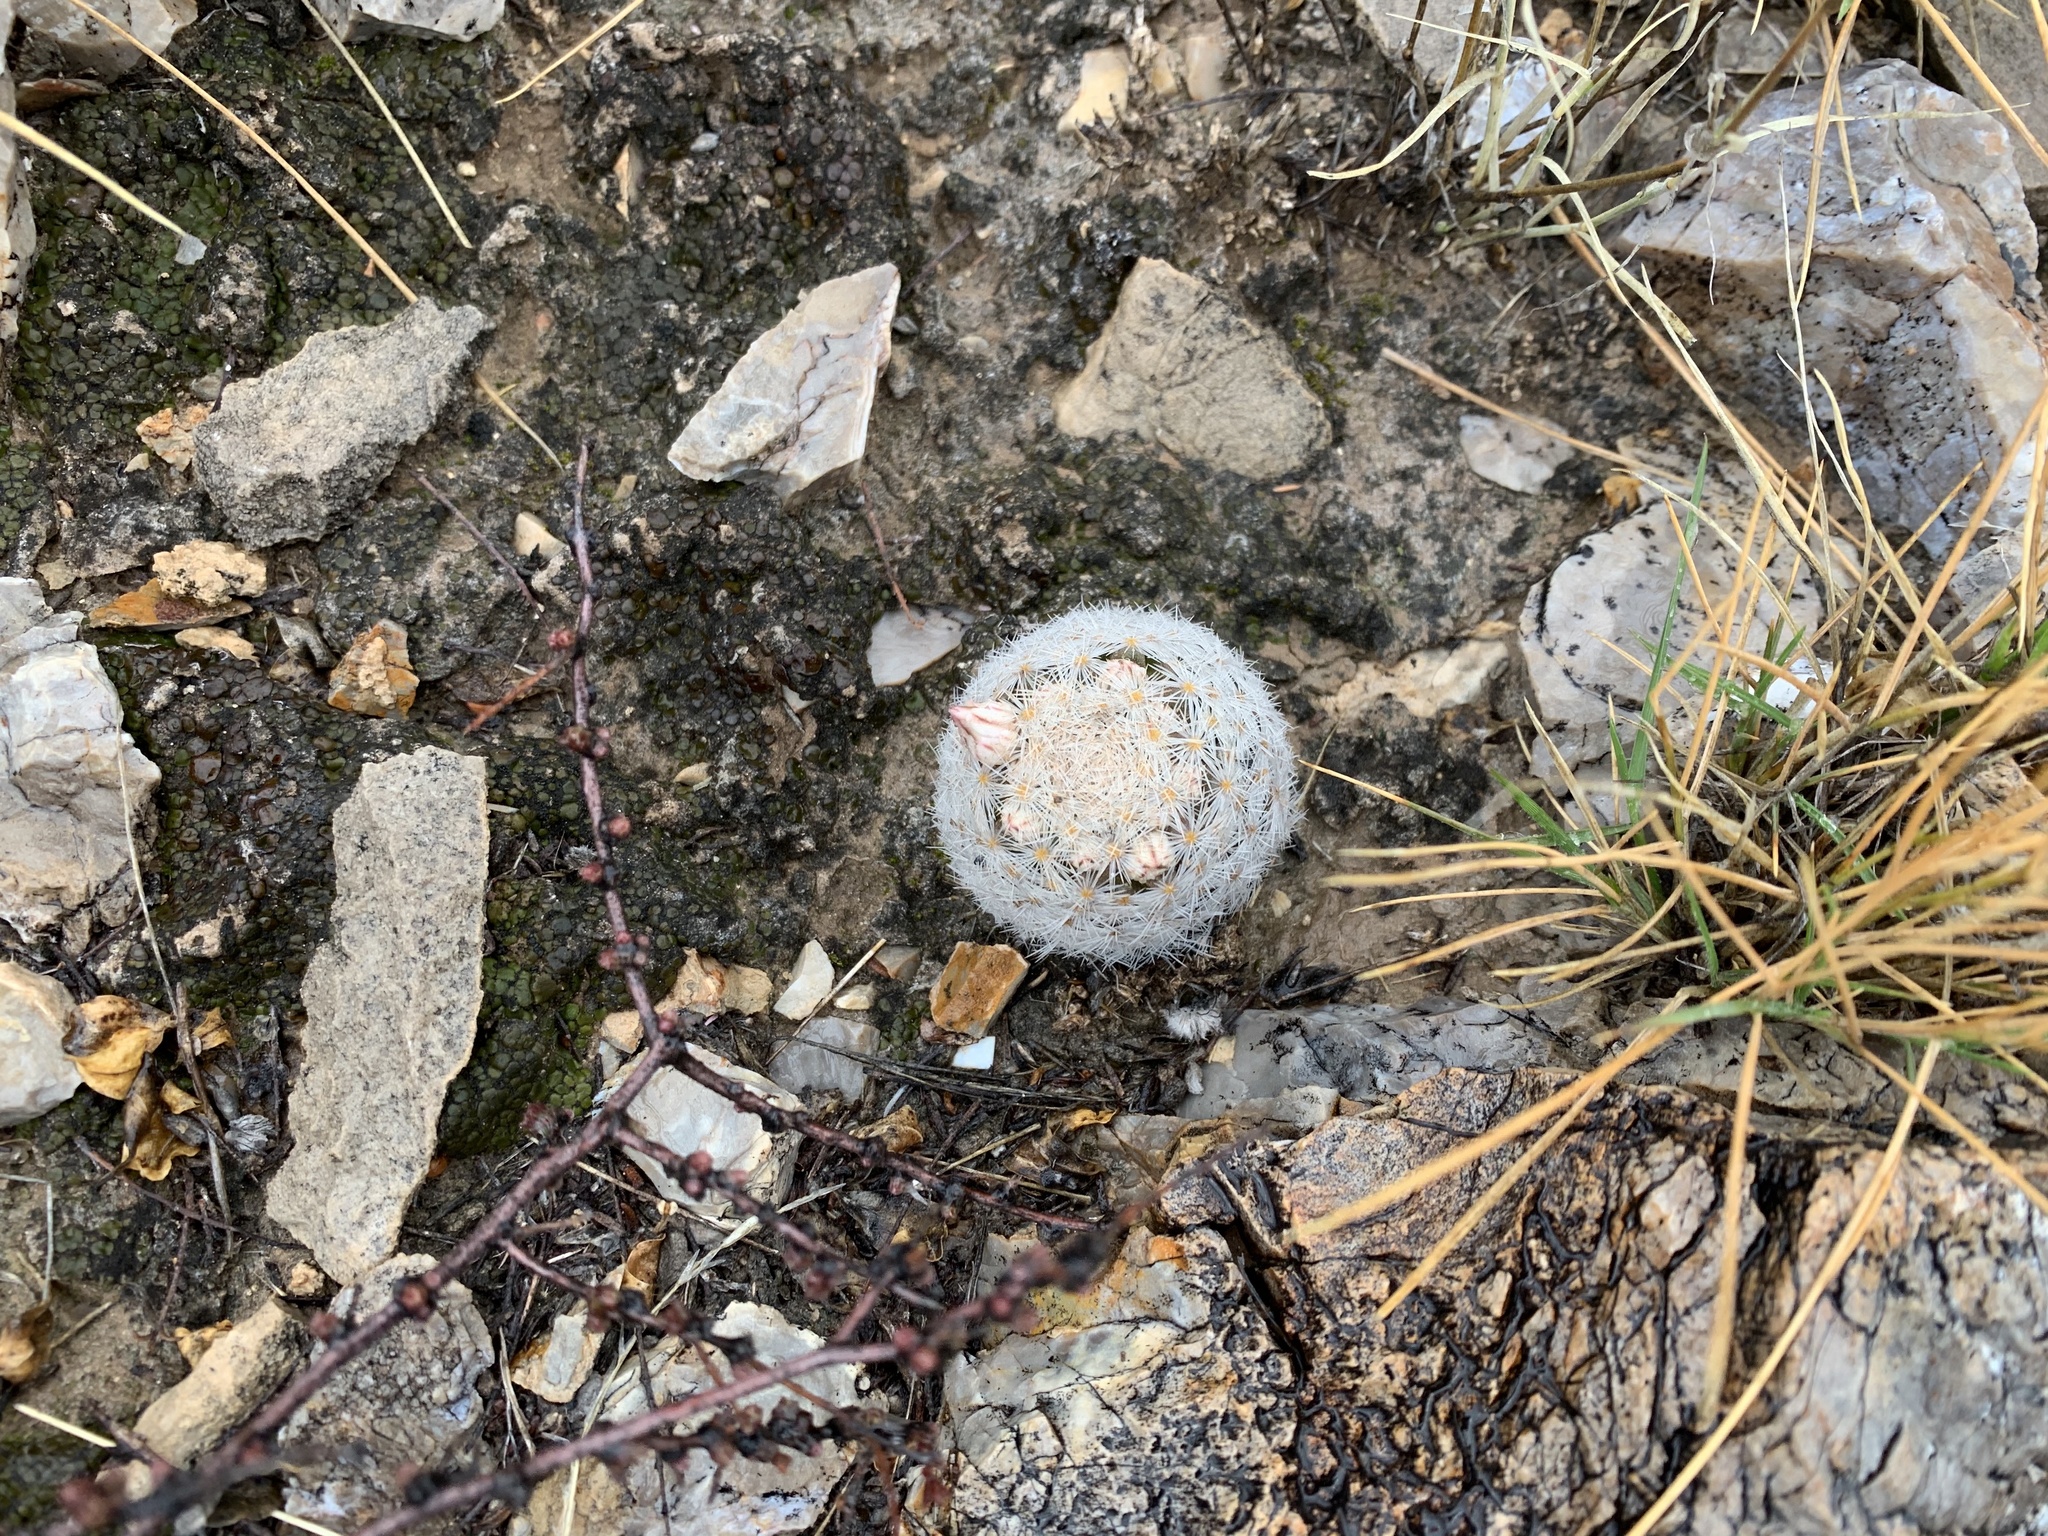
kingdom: Plantae
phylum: Tracheophyta
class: Magnoliopsida
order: Caryophyllales
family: Cactaceae
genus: Mammillaria
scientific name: Mammillaria lasiacantha
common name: Lace-spine nipple cactus
